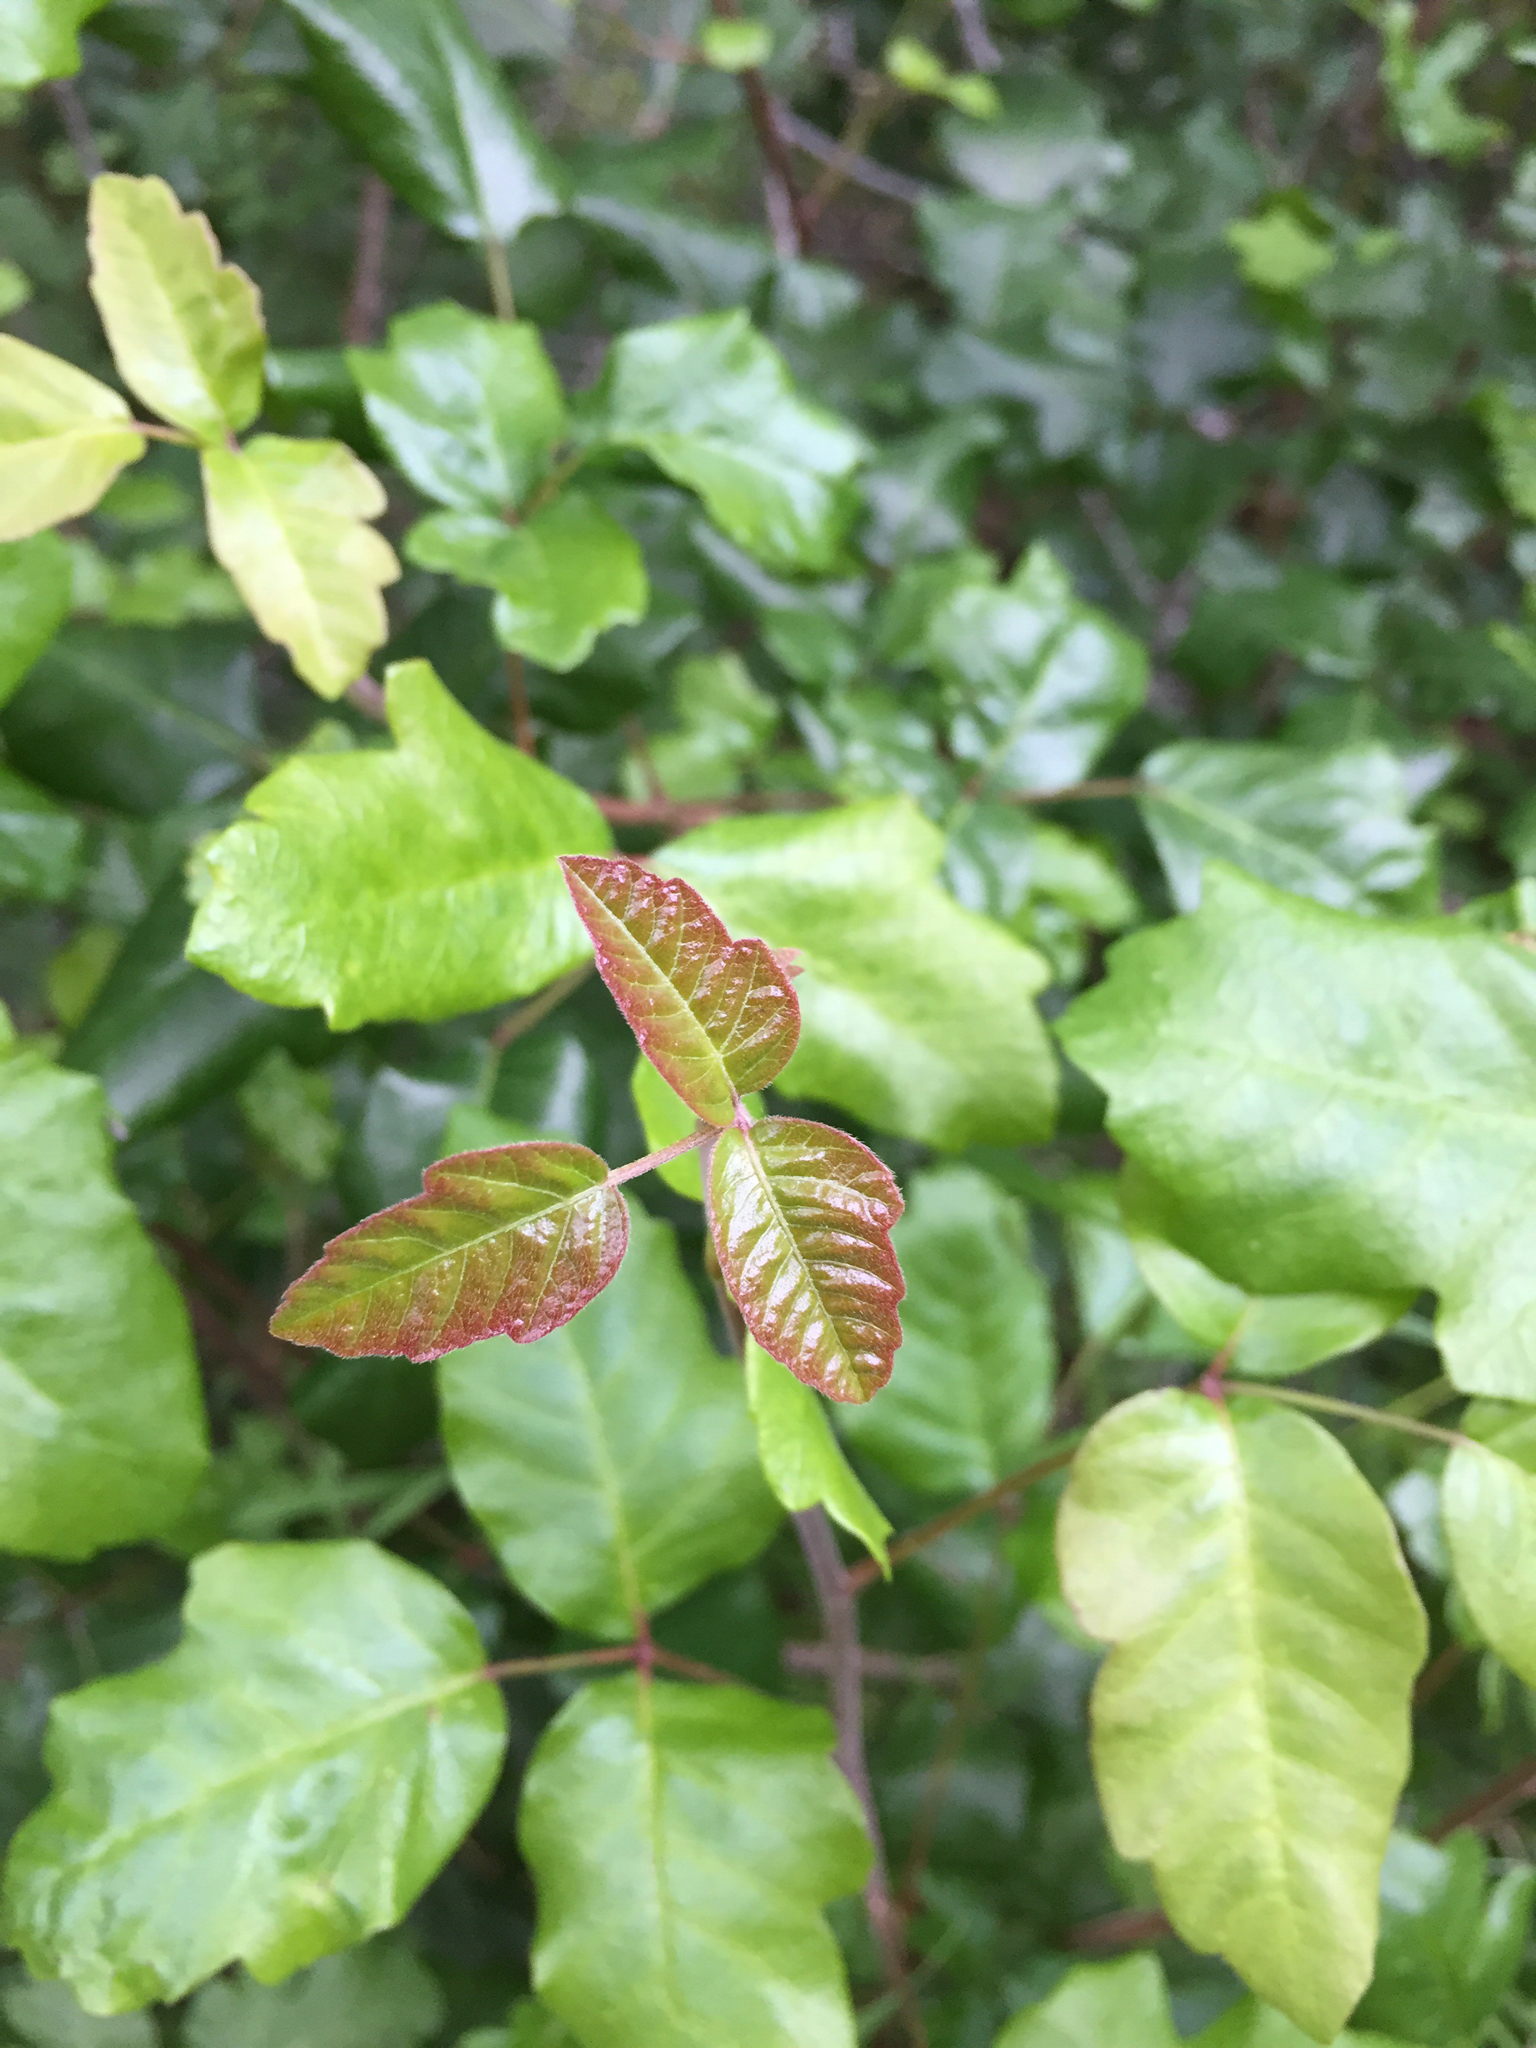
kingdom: Plantae
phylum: Tracheophyta
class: Magnoliopsida
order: Sapindales
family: Anacardiaceae
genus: Toxicodendron
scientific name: Toxicodendron diversilobum
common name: Pacific poison-oak
